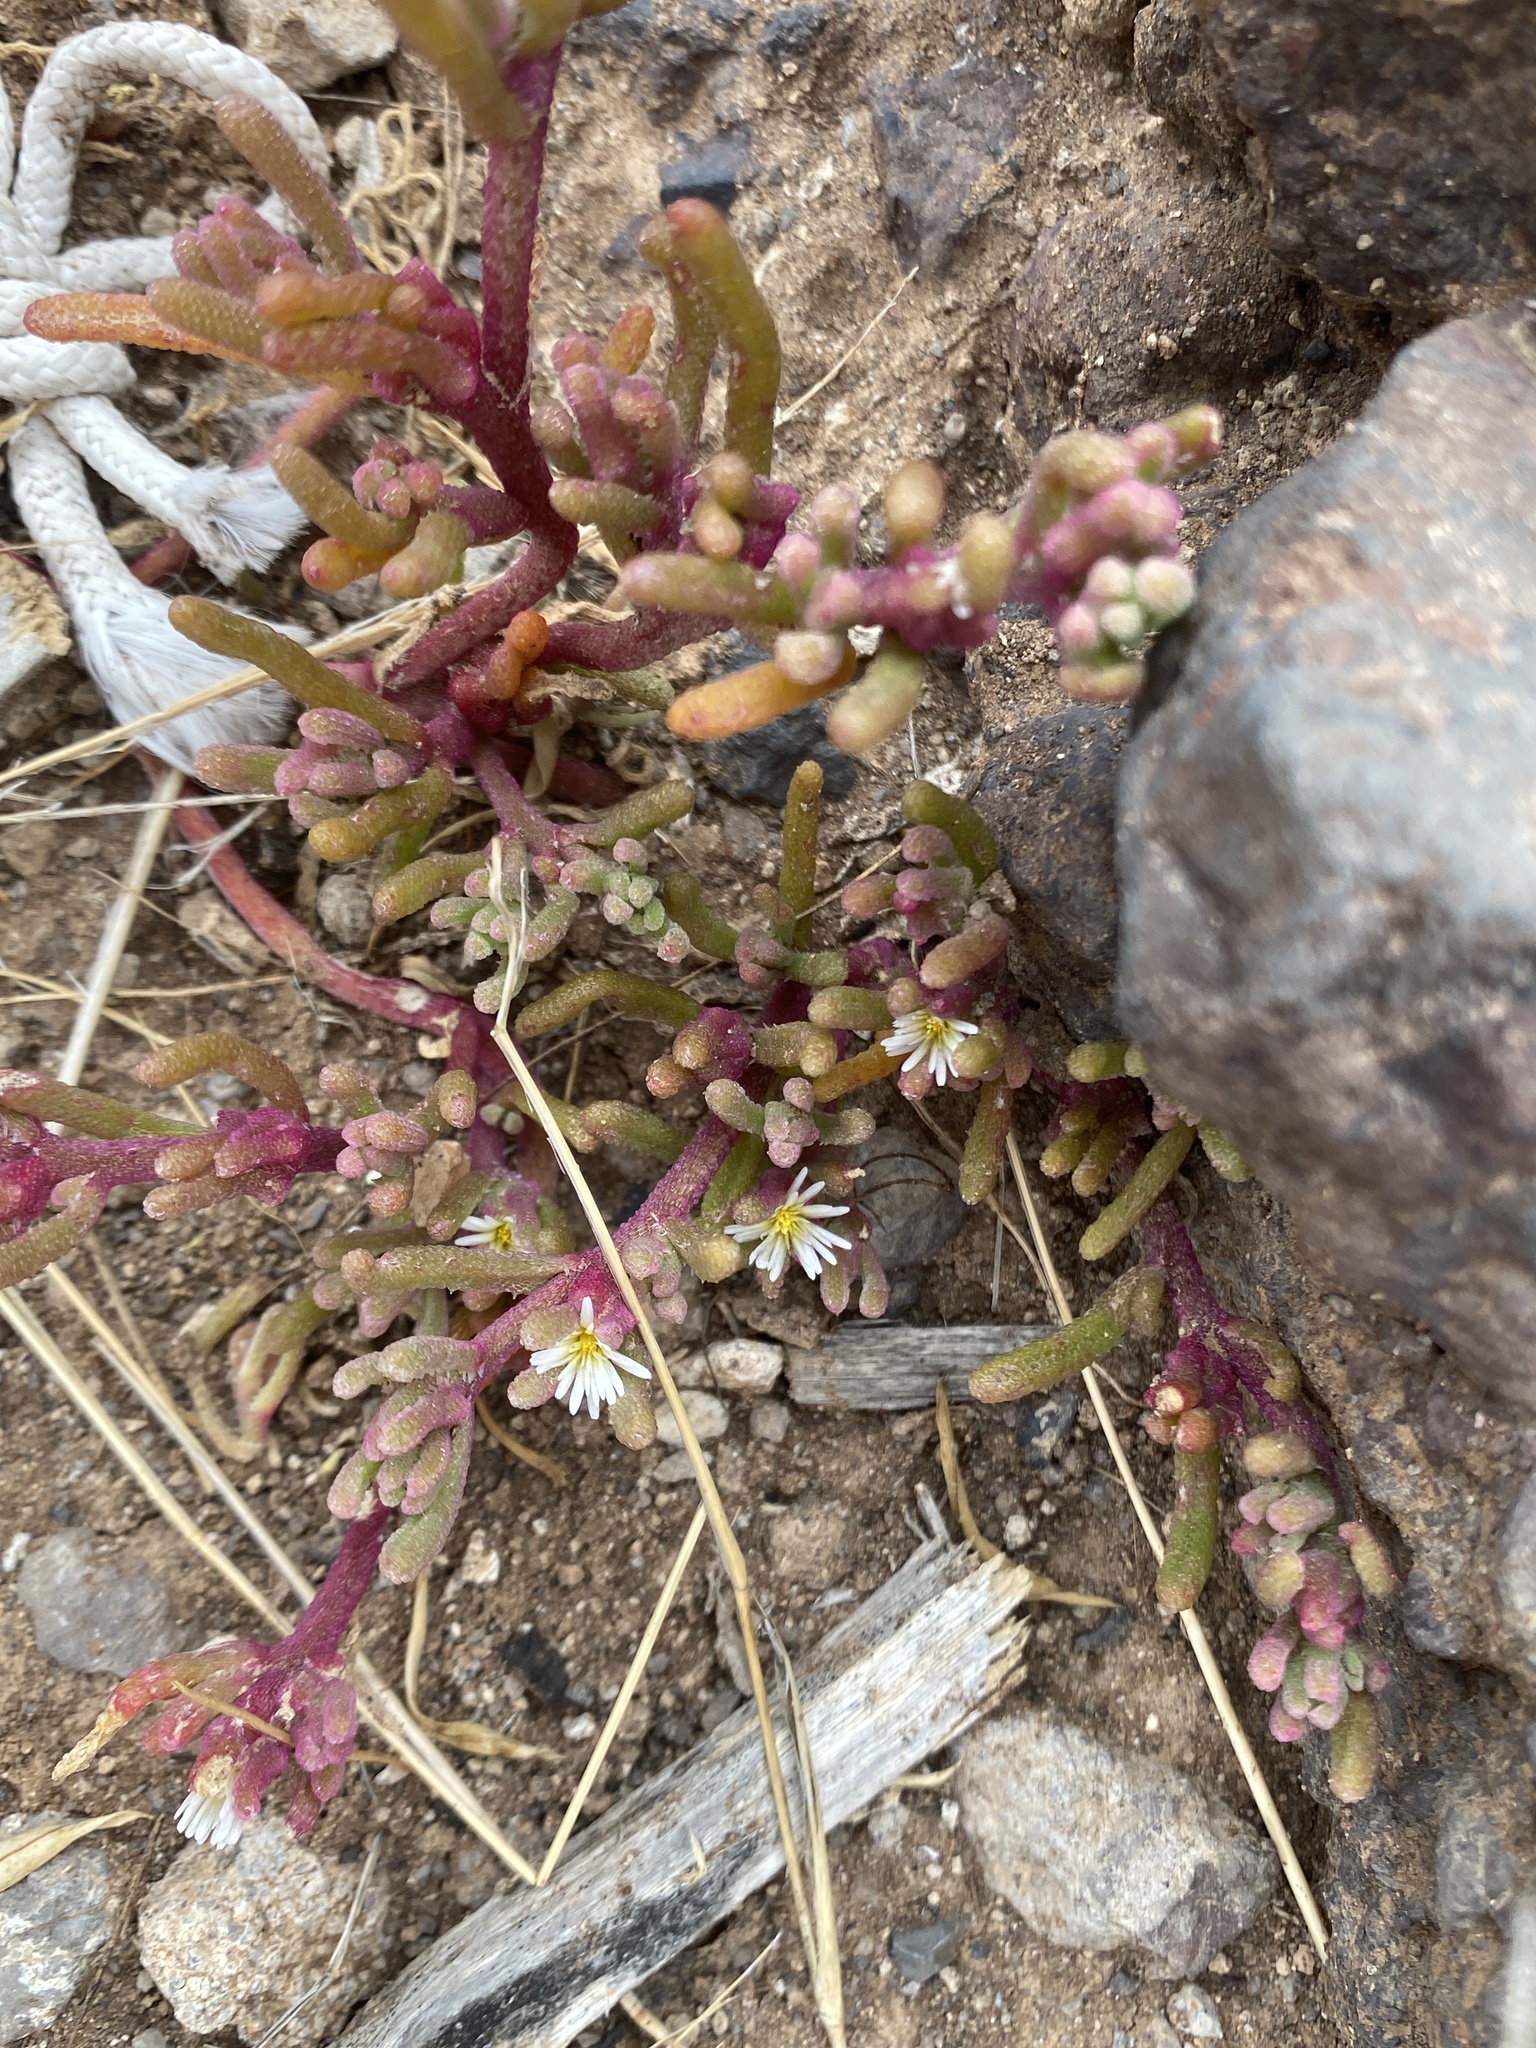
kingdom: Plantae
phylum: Tracheophyta
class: Magnoliopsida
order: Caryophyllales
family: Aizoaceae
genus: Mesembryanthemum
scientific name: Mesembryanthemum nodiflorum
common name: Slenderleaf iceplant
